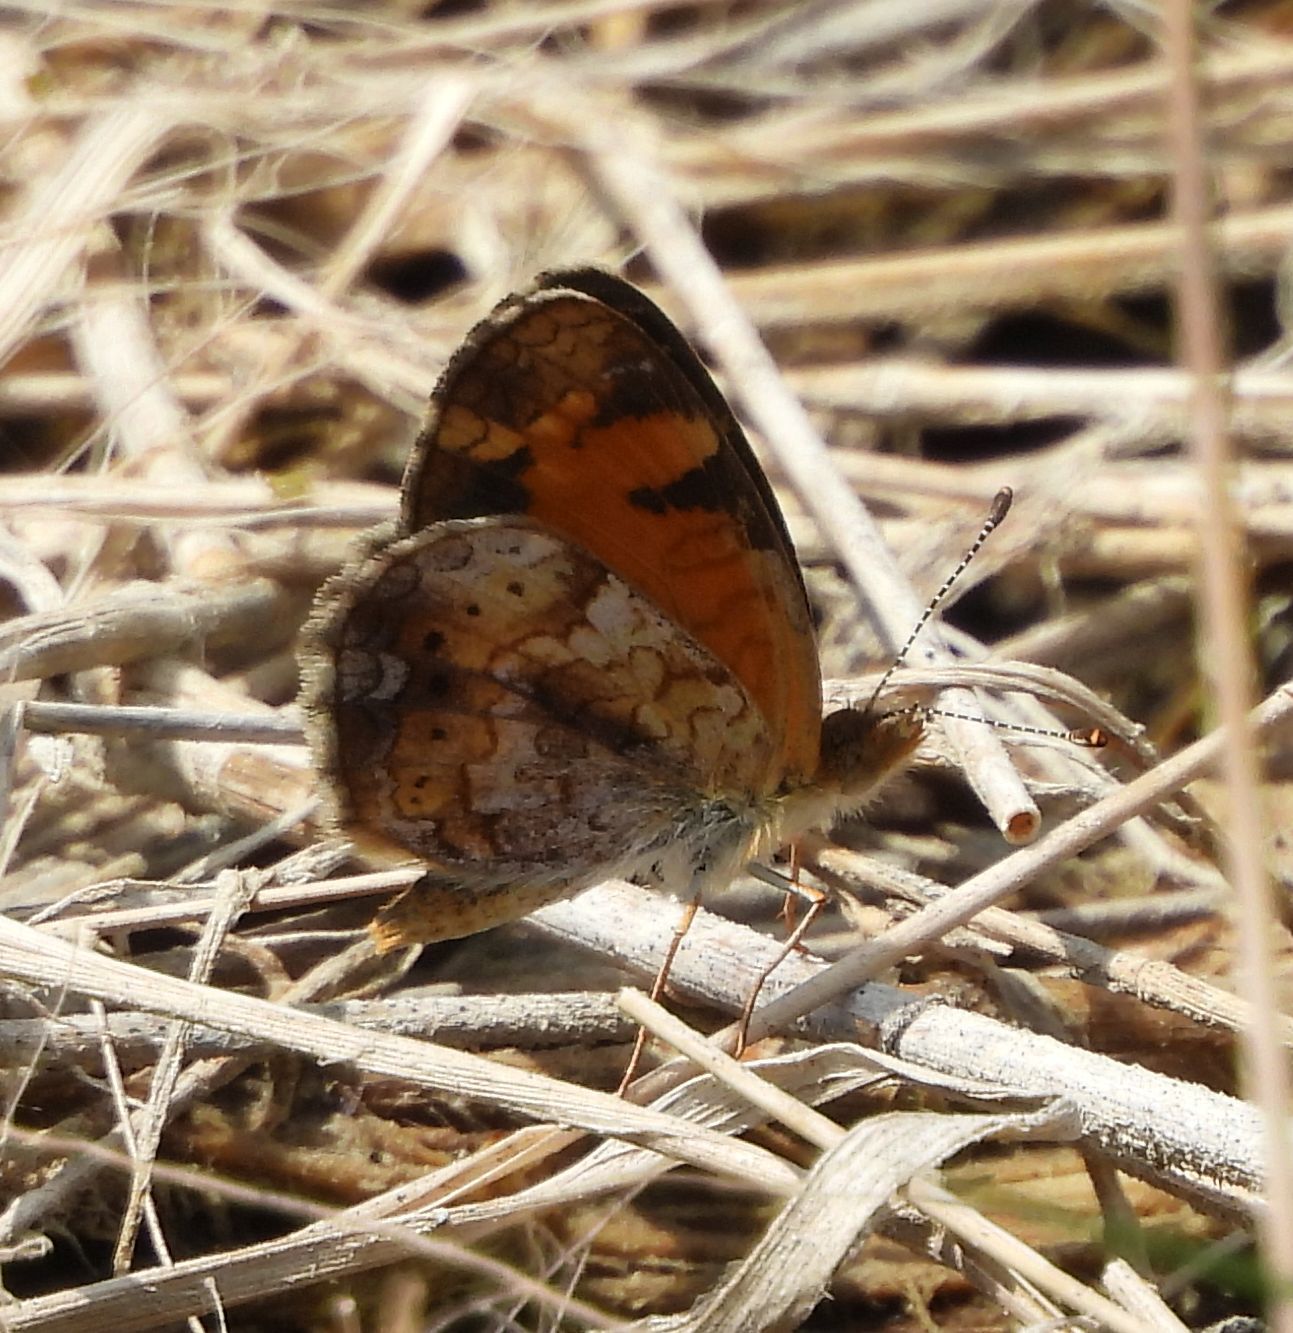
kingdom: Animalia
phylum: Arthropoda
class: Insecta
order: Lepidoptera
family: Nymphalidae
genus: Phyciodes
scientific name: Phyciodes tharos
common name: Pearl crescent
